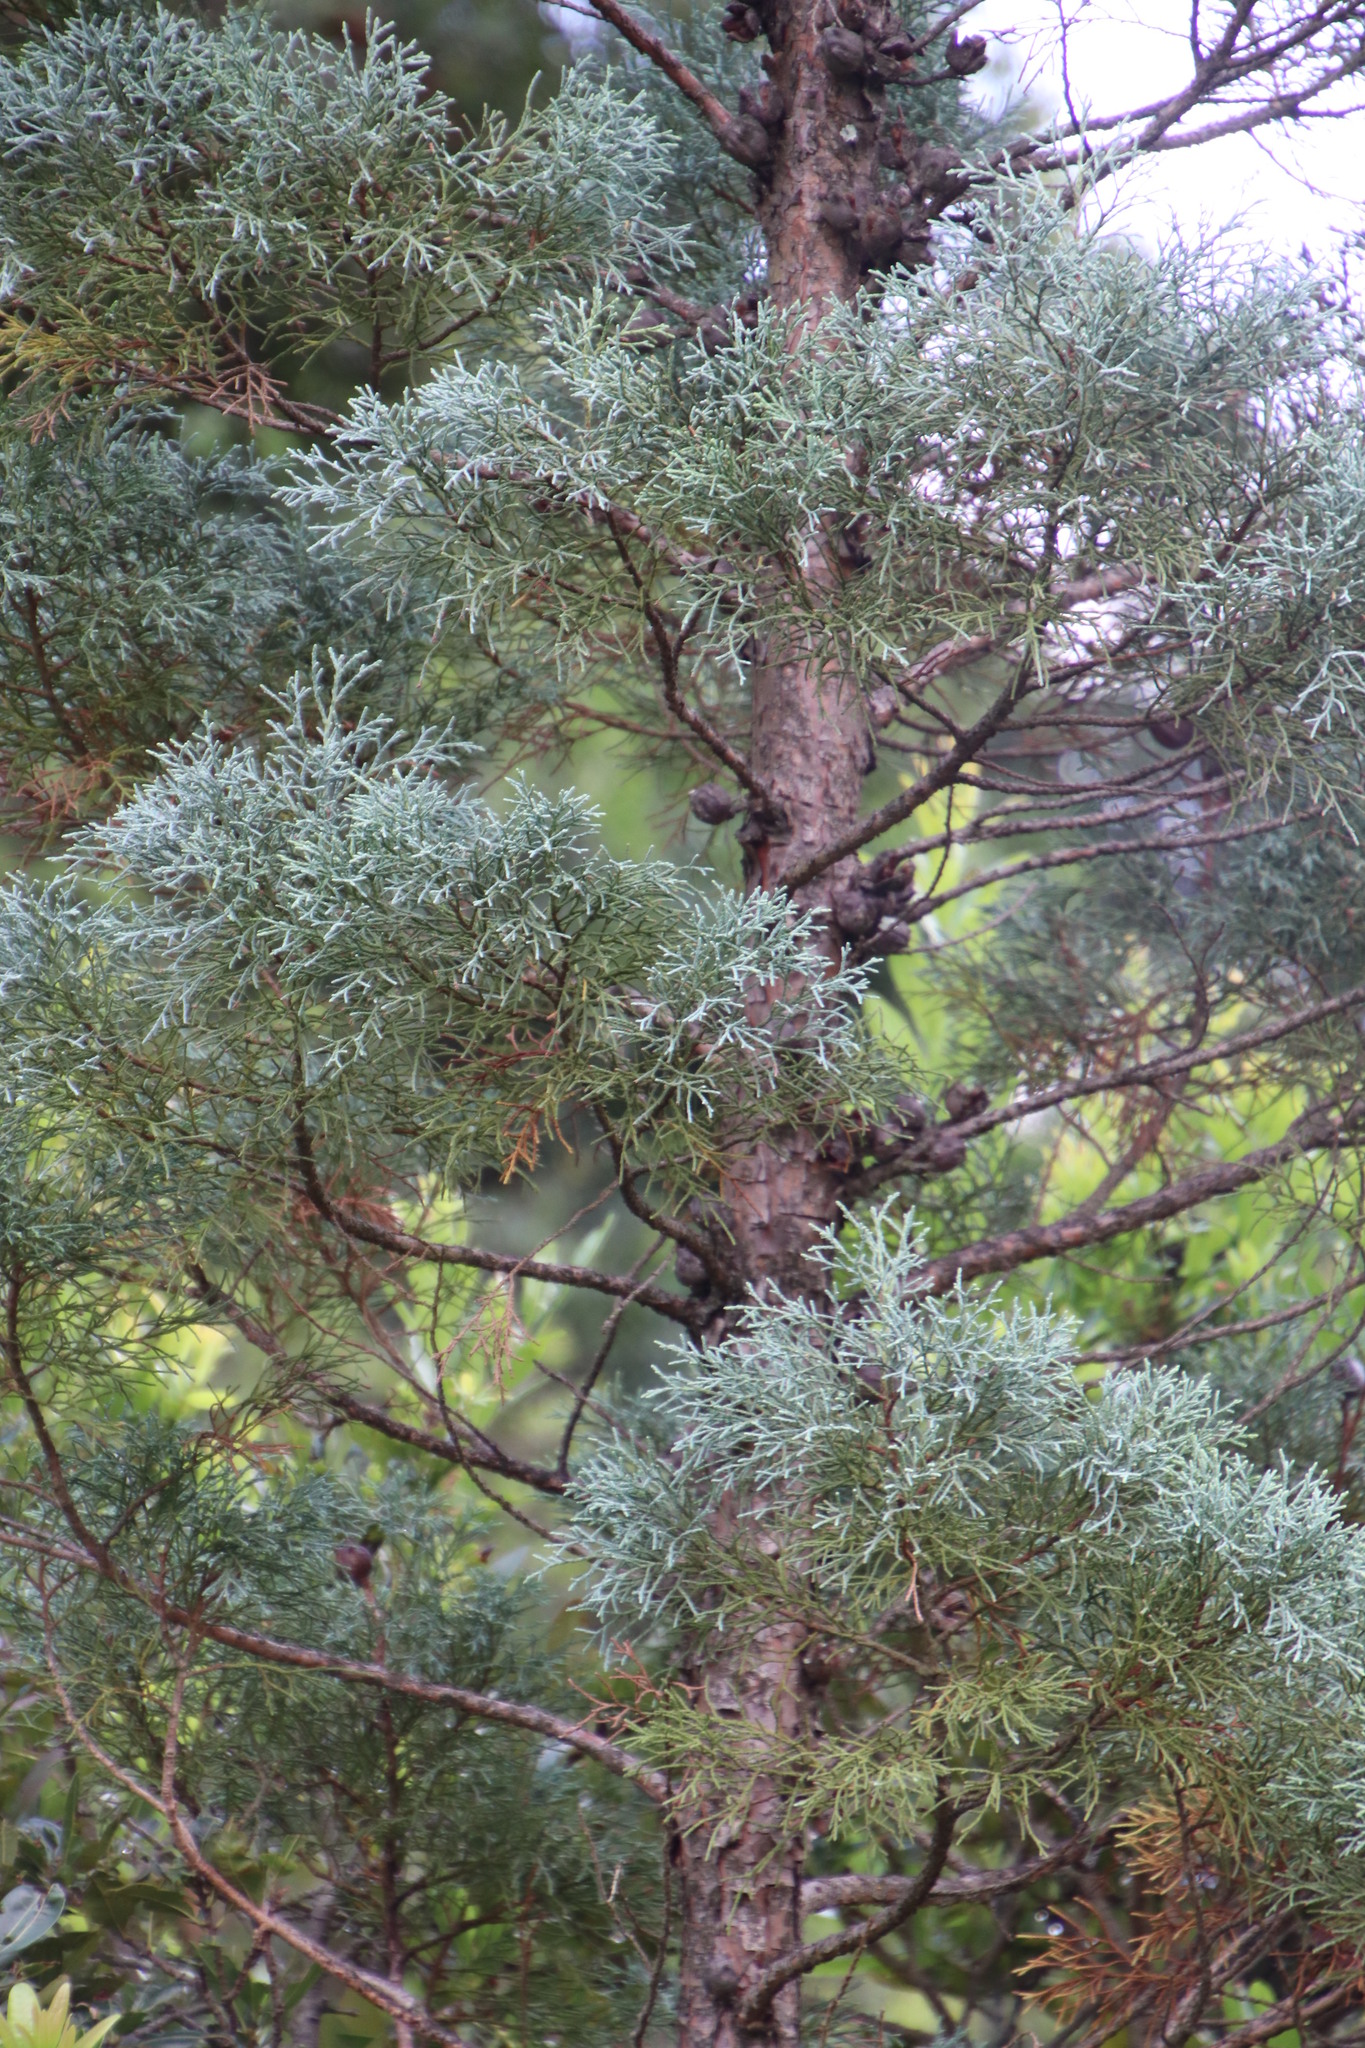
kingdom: Plantae
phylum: Tracheophyta
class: Pinopsida
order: Pinales
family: Cupressaceae
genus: Widdringtonia
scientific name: Widdringtonia nodiflora
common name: Cape cypress
